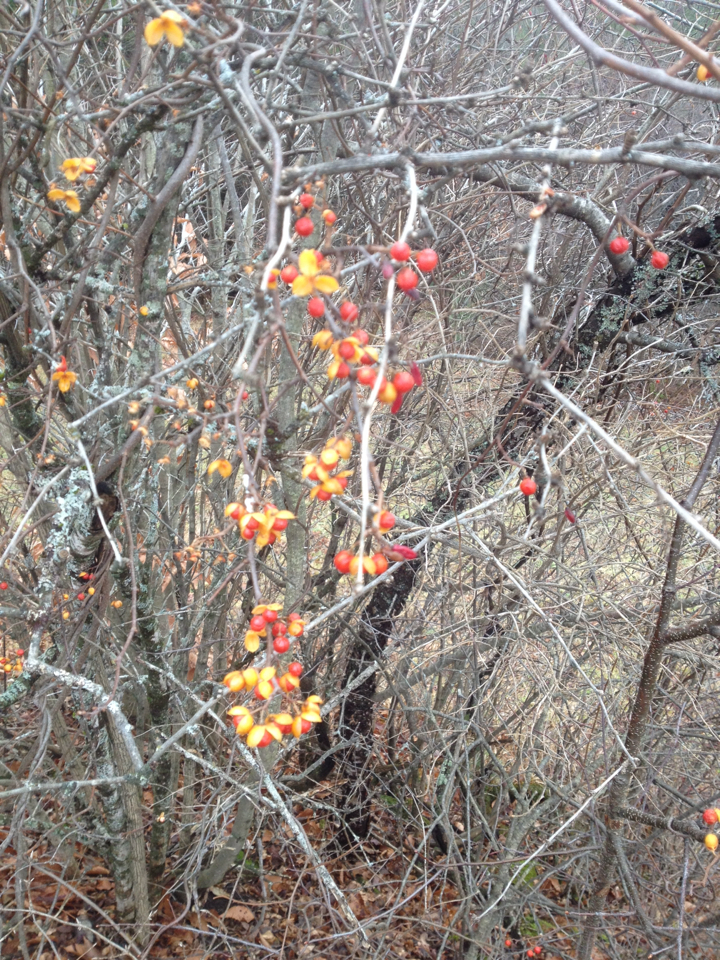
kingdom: Plantae
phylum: Tracheophyta
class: Magnoliopsida
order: Celastrales
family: Celastraceae
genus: Celastrus
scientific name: Celastrus orbiculatus
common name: Oriental bittersweet
